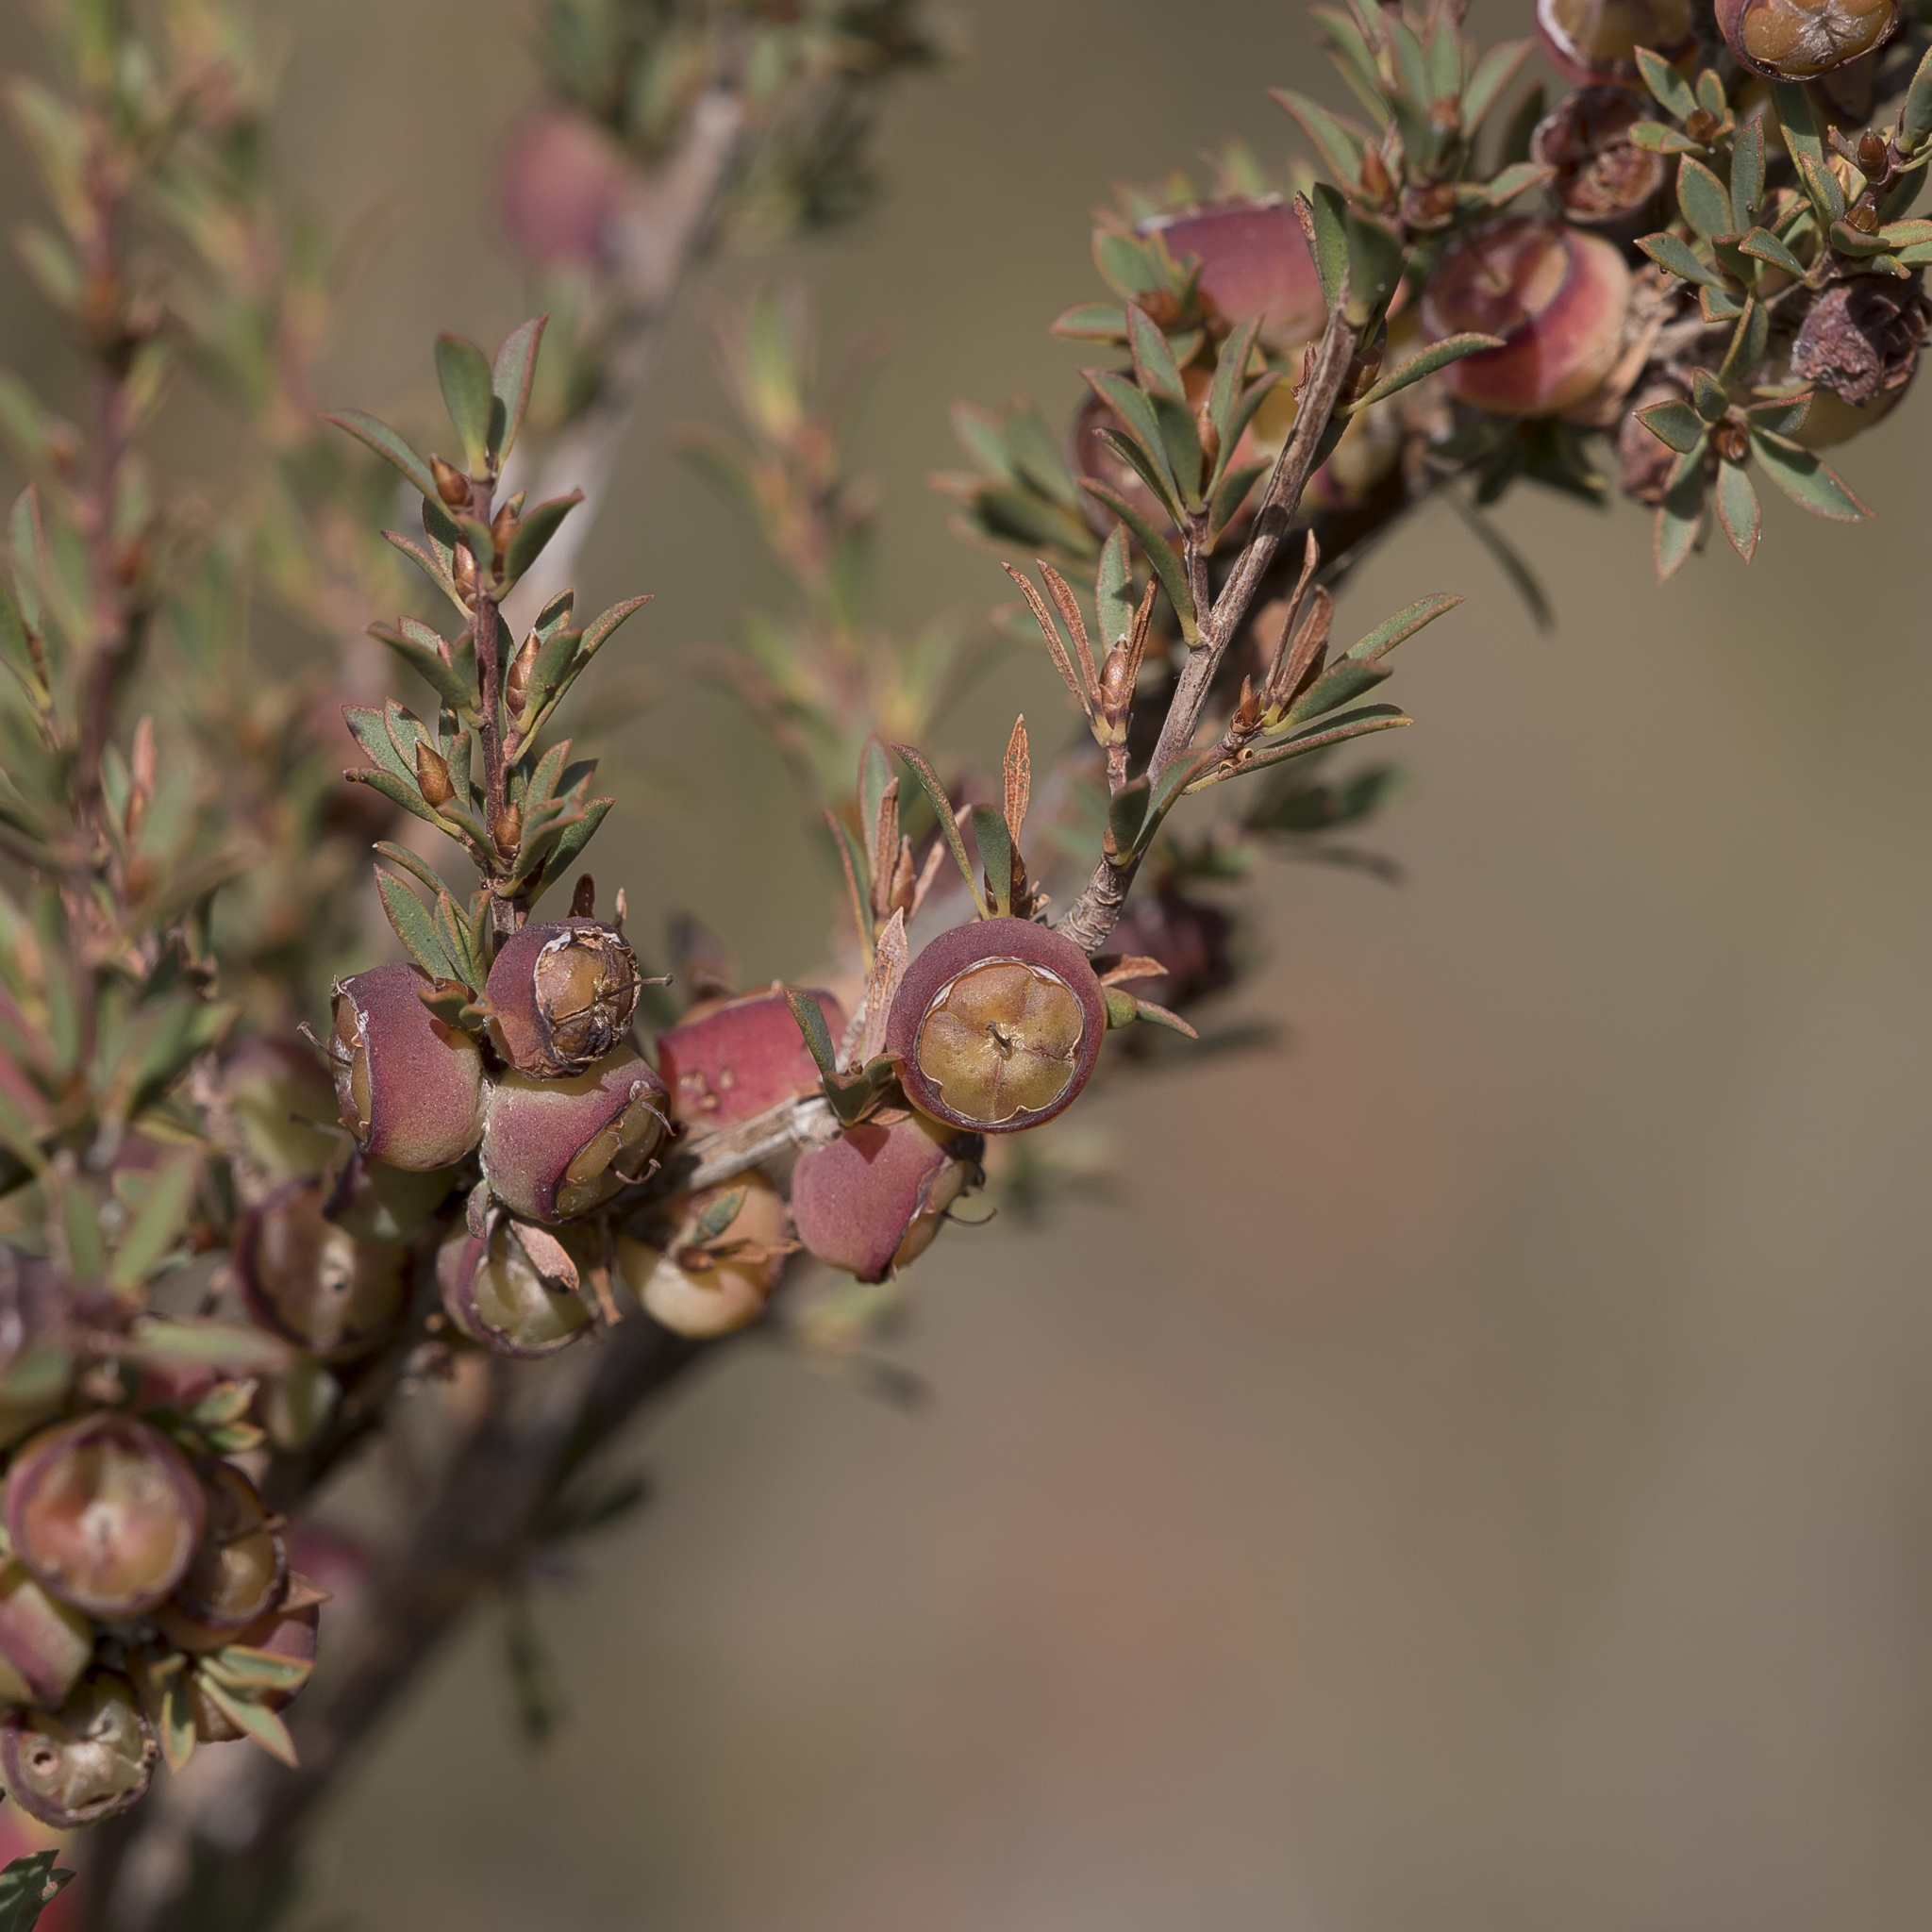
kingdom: Plantae
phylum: Tracheophyta
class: Magnoliopsida
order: Myrtales
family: Myrtaceae
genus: Leptospermum
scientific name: Leptospermum myrsinoides
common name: Heath teatree
